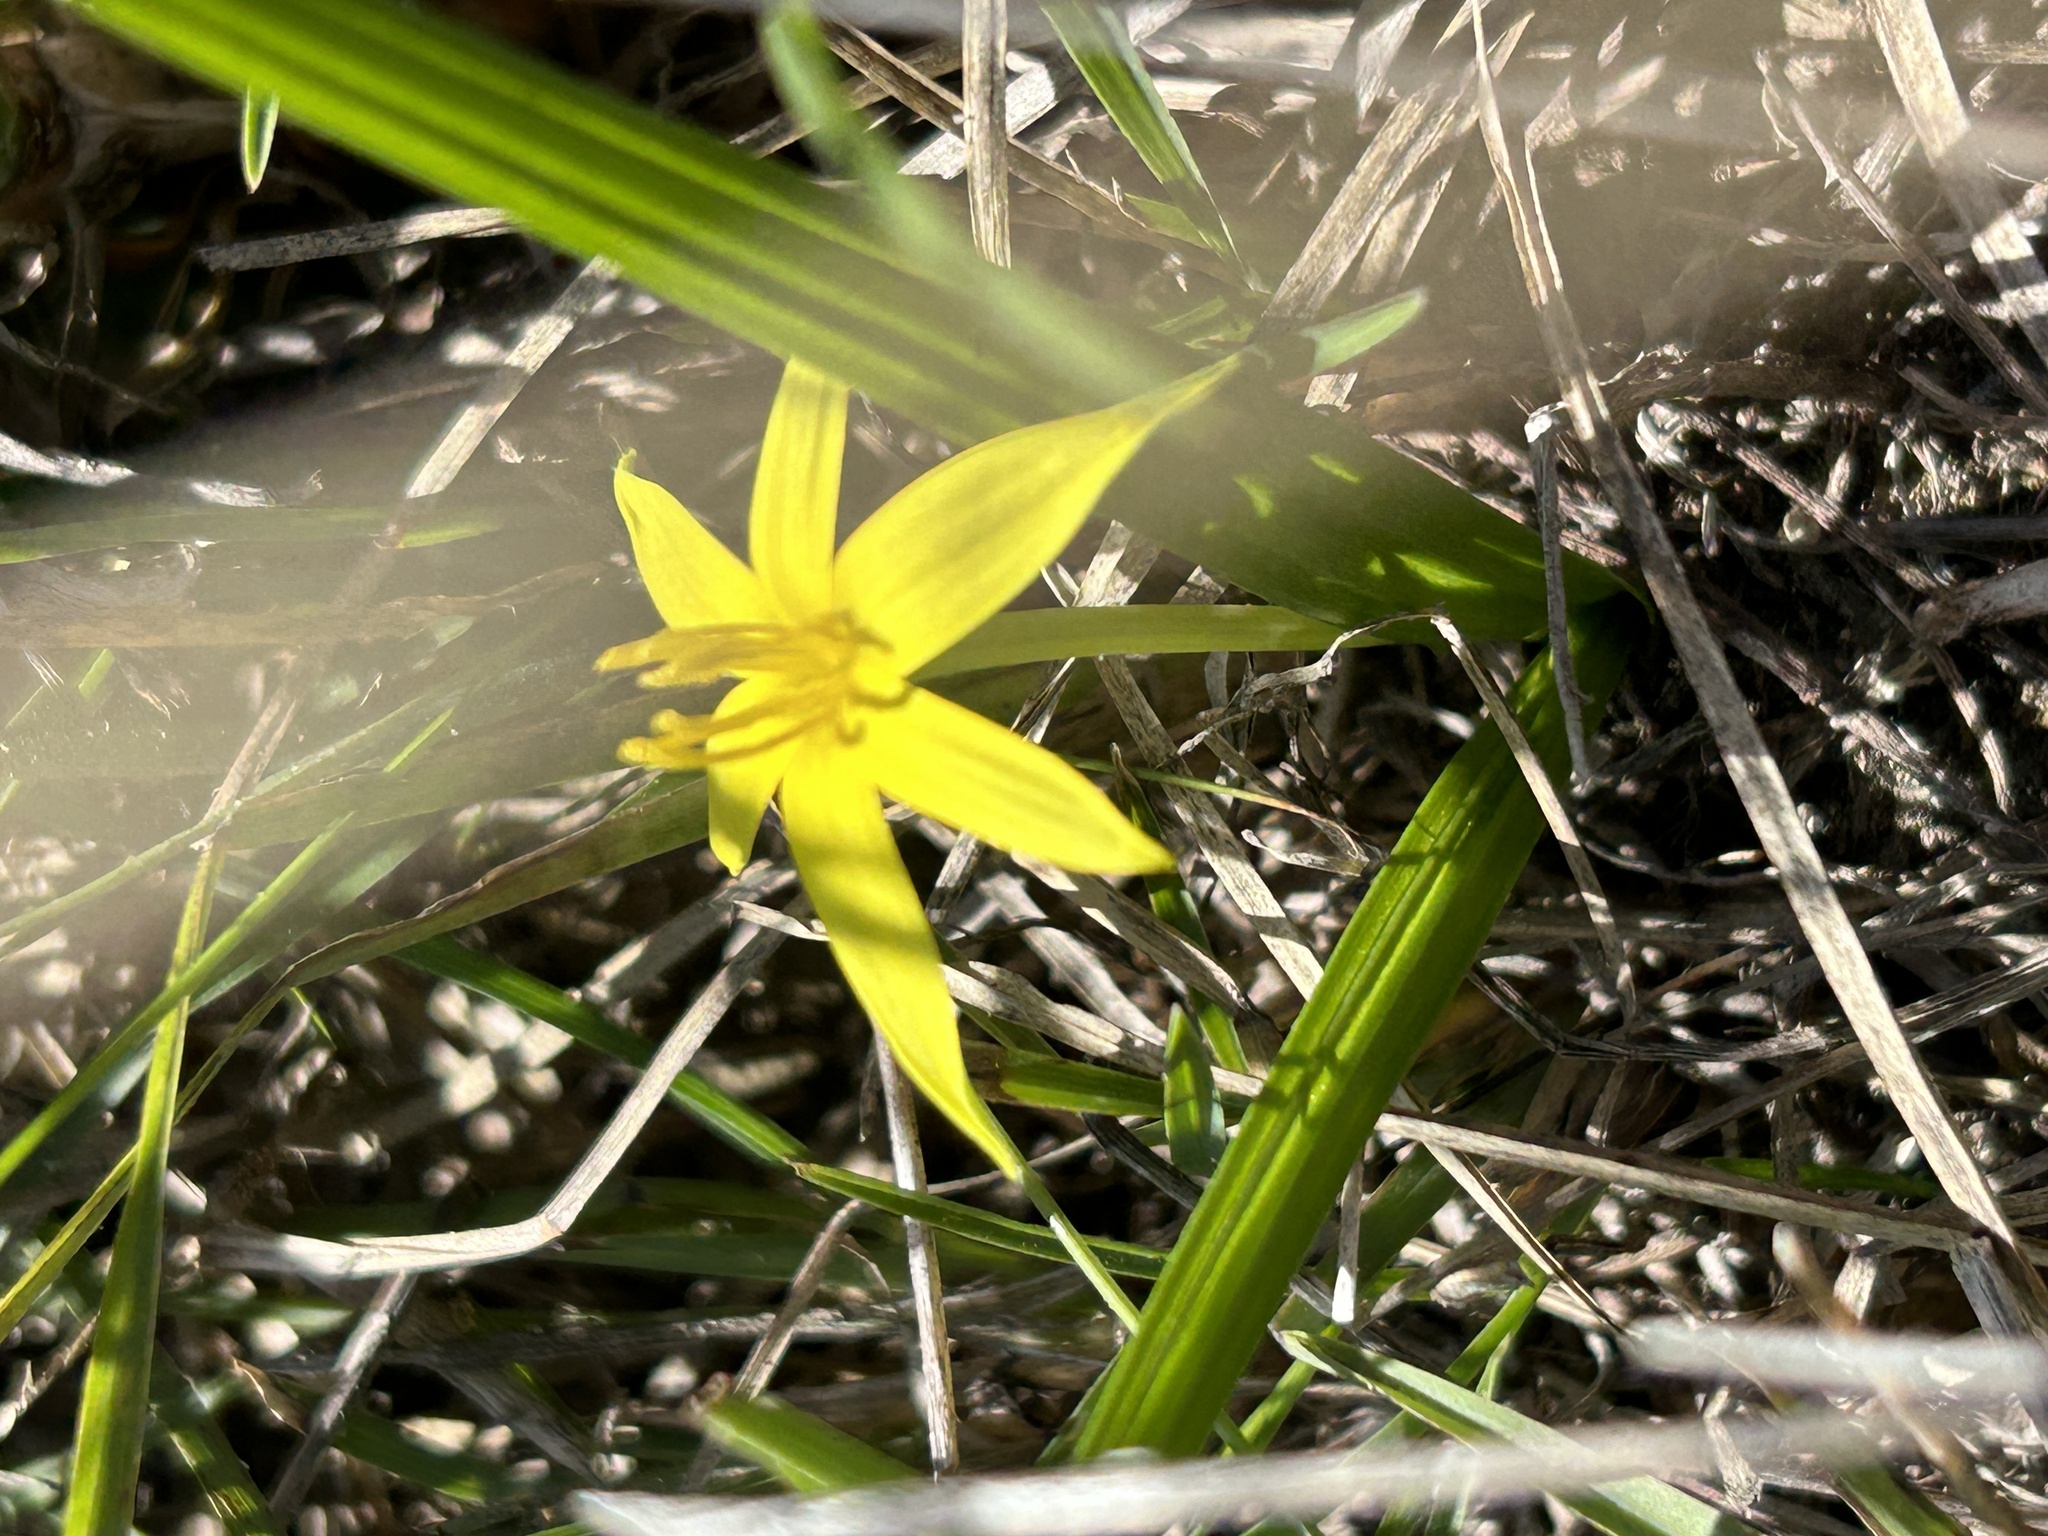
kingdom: Plantae
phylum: Tracheophyta
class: Liliopsida
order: Asparagales
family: Hypoxidaceae
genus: Empodium
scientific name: Empodium plicatum
